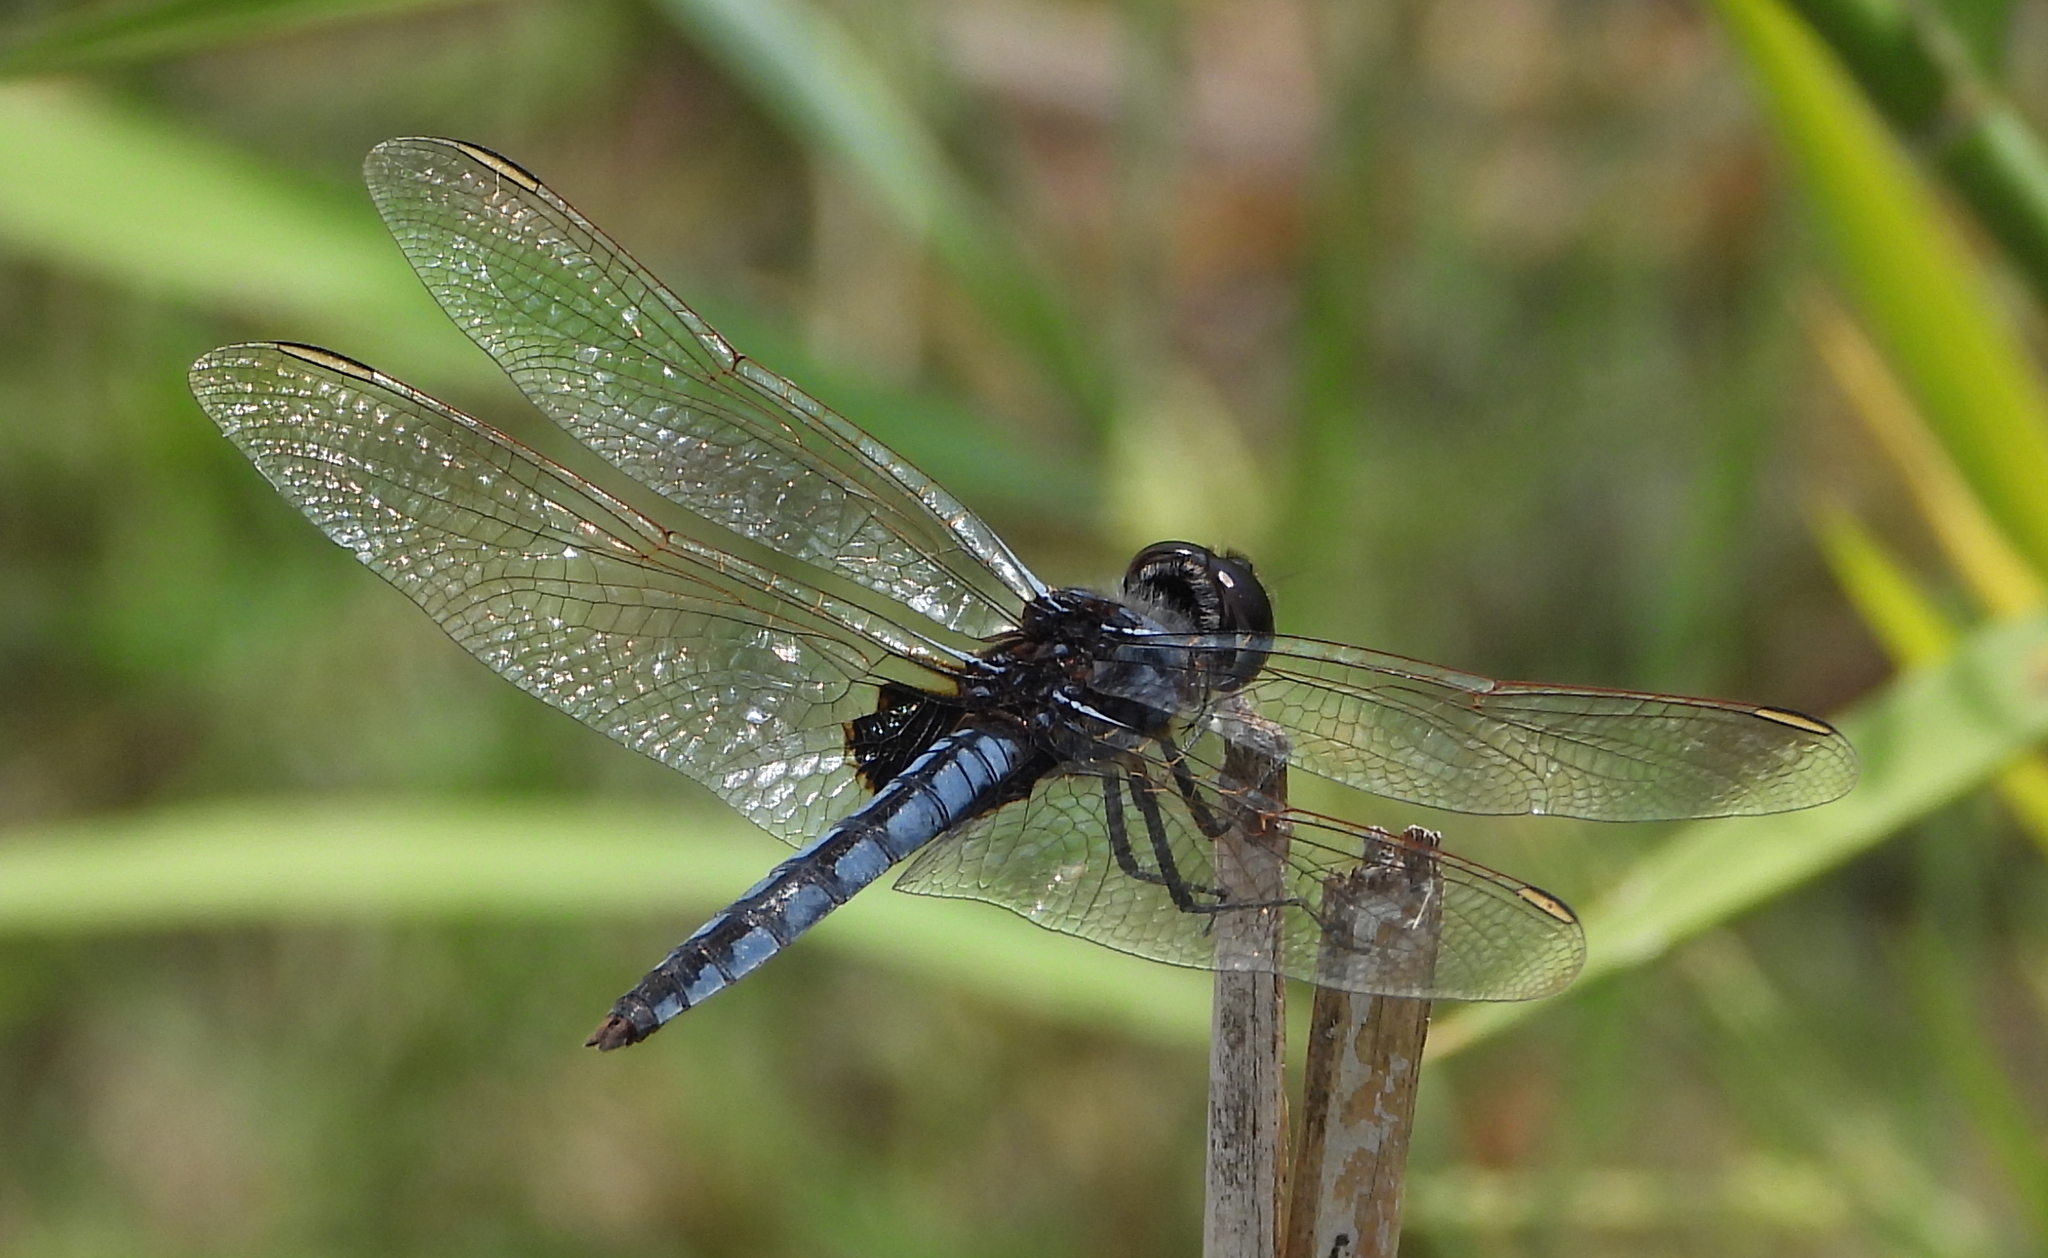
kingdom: Animalia
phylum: Arthropoda
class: Insecta
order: Odonata
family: Libellulidae
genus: Urothemis
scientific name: Urothemis edwardsii
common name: Blue basker
